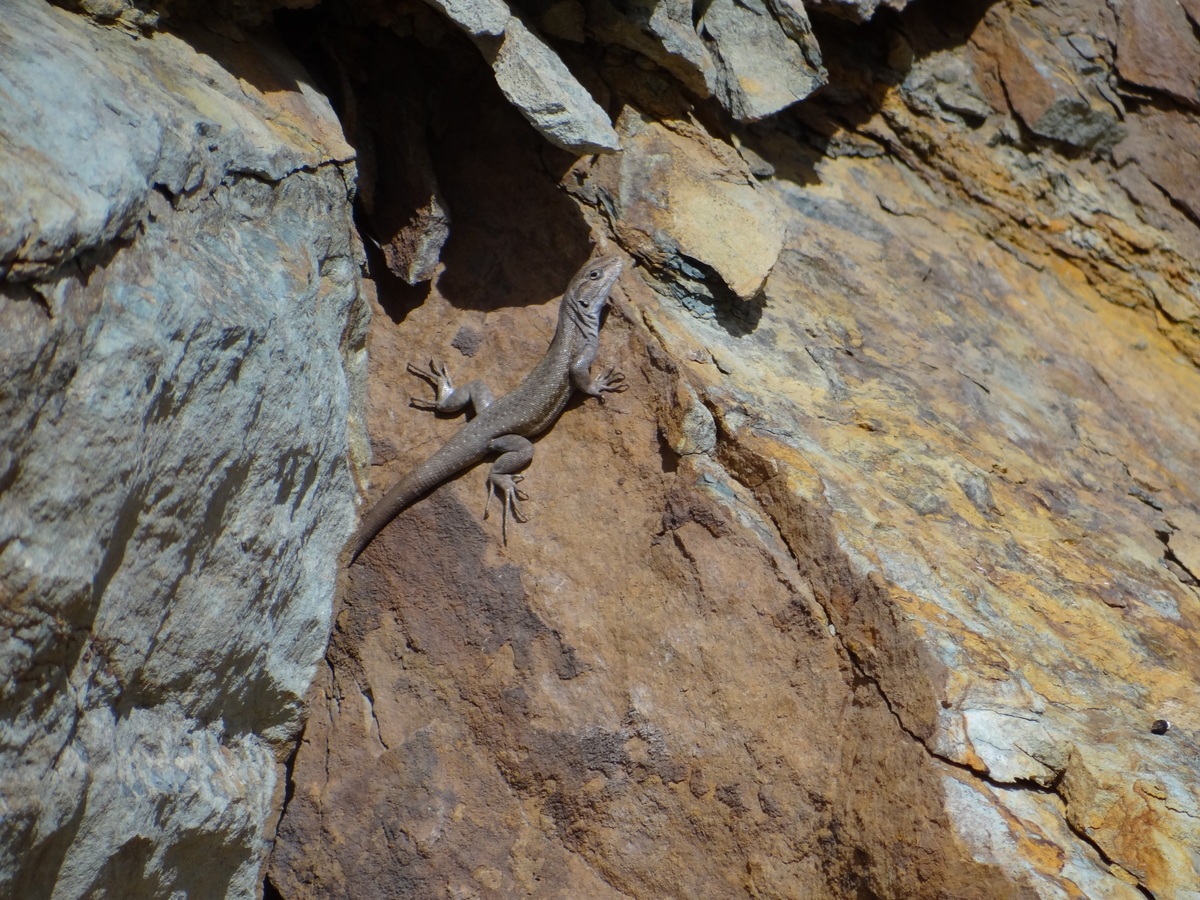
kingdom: Animalia
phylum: Chordata
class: Squamata
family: Liolaemidae
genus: Liolaemus
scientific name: Liolaemus smaug
